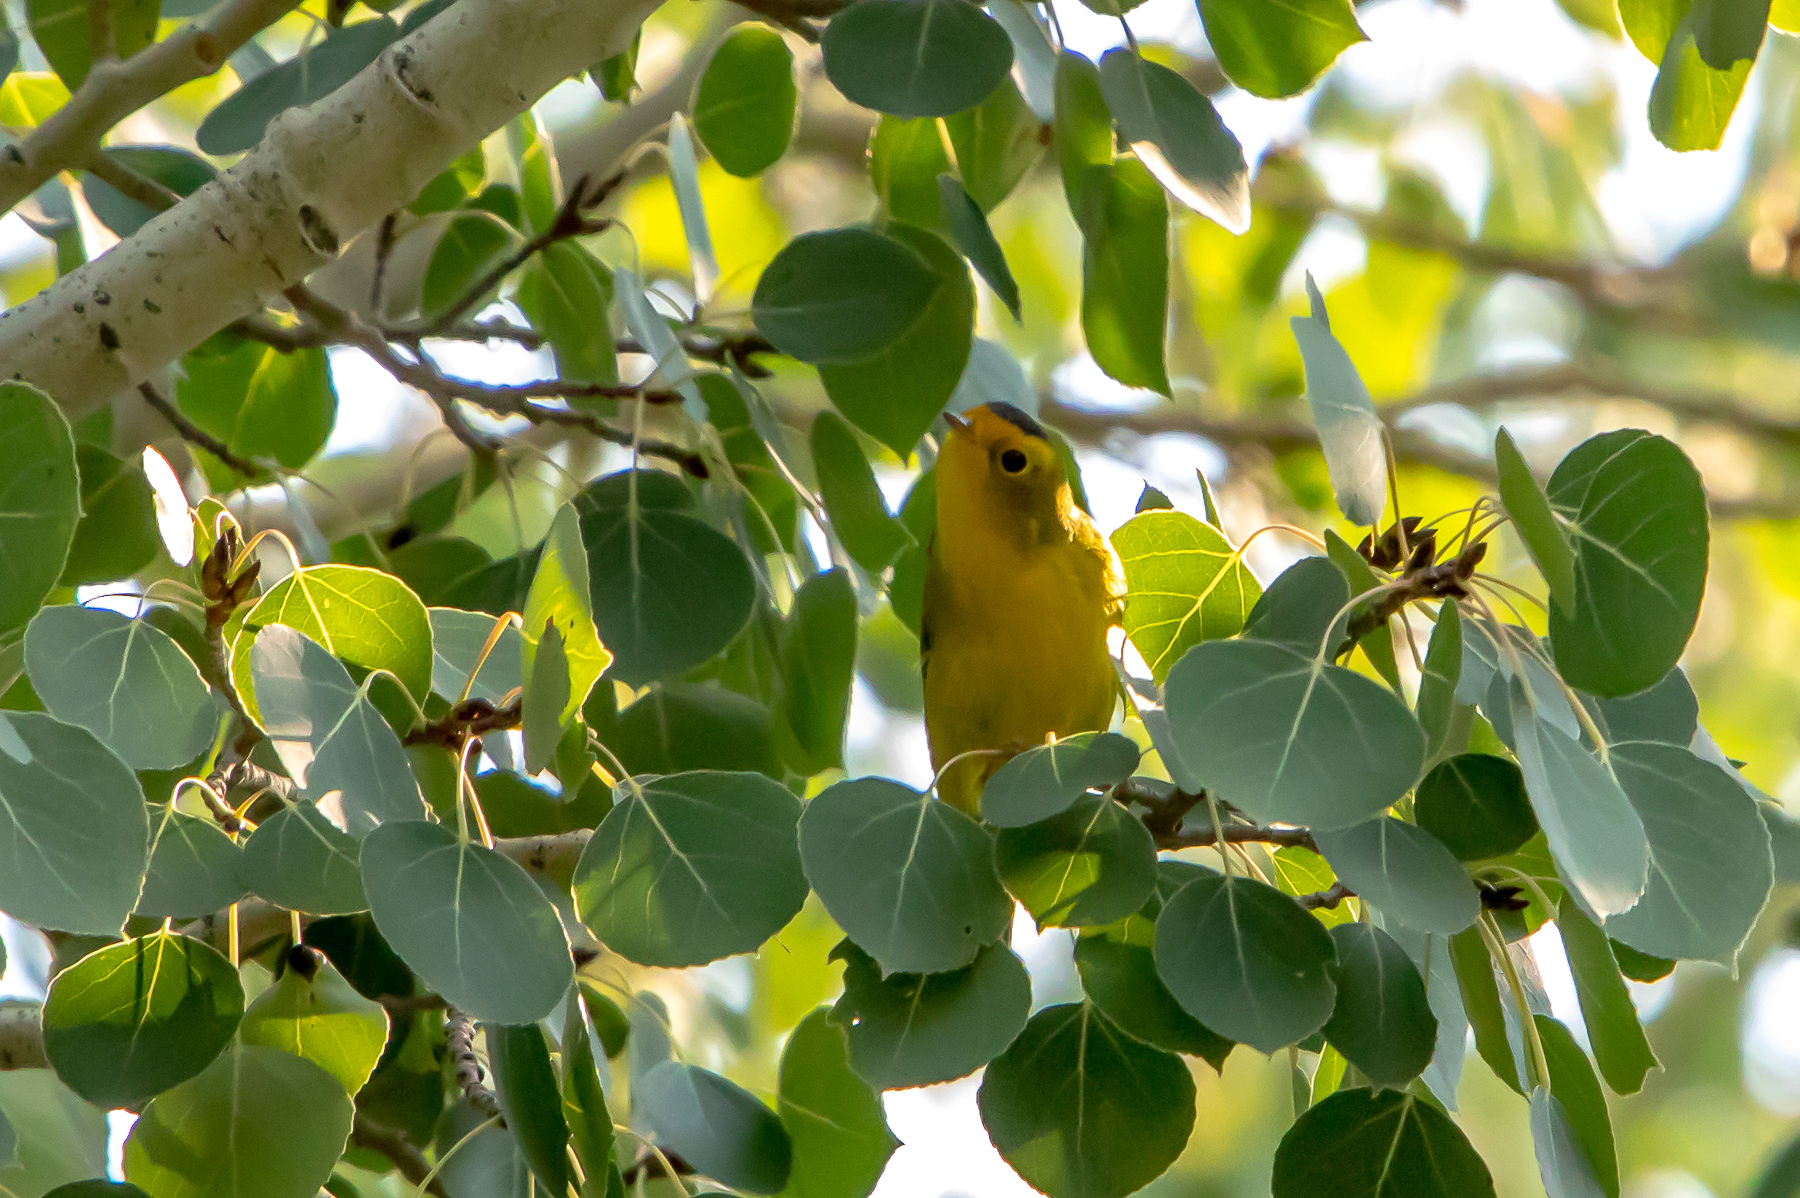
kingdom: Animalia
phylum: Chordata
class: Aves
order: Passeriformes
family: Parulidae
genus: Cardellina
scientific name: Cardellina pusilla
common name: Wilson's warbler
